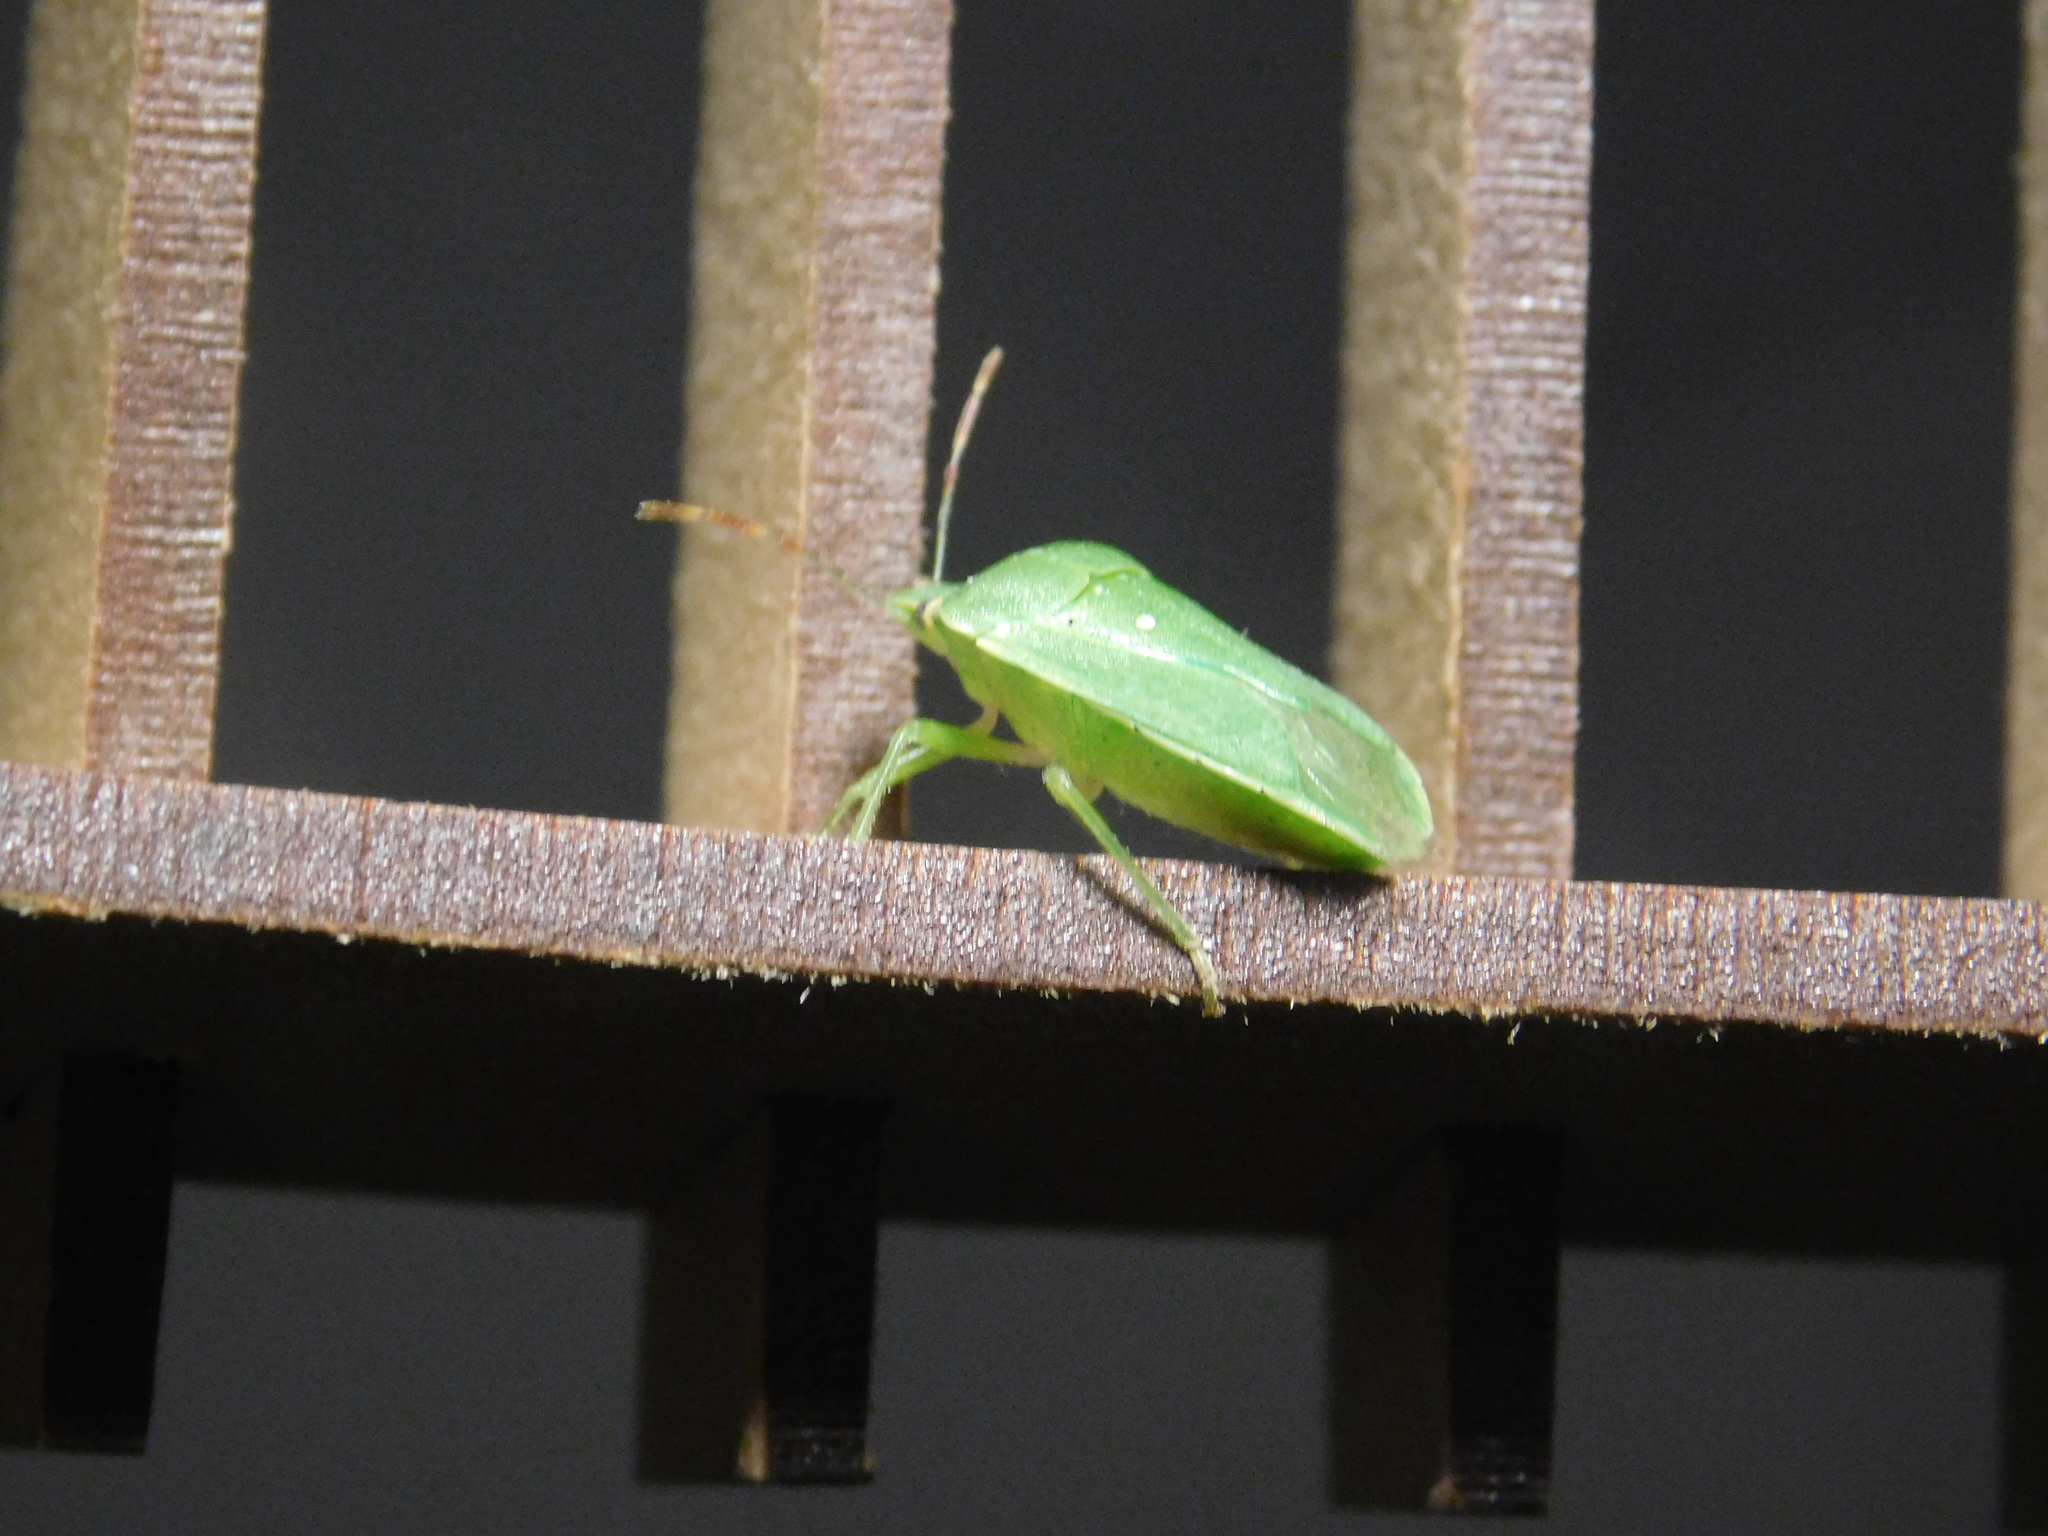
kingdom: Animalia
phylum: Arthropoda
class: Insecta
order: Hemiptera
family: Pentatomidae
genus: Nezara
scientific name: Nezara viridula
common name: Southern green stink bug
